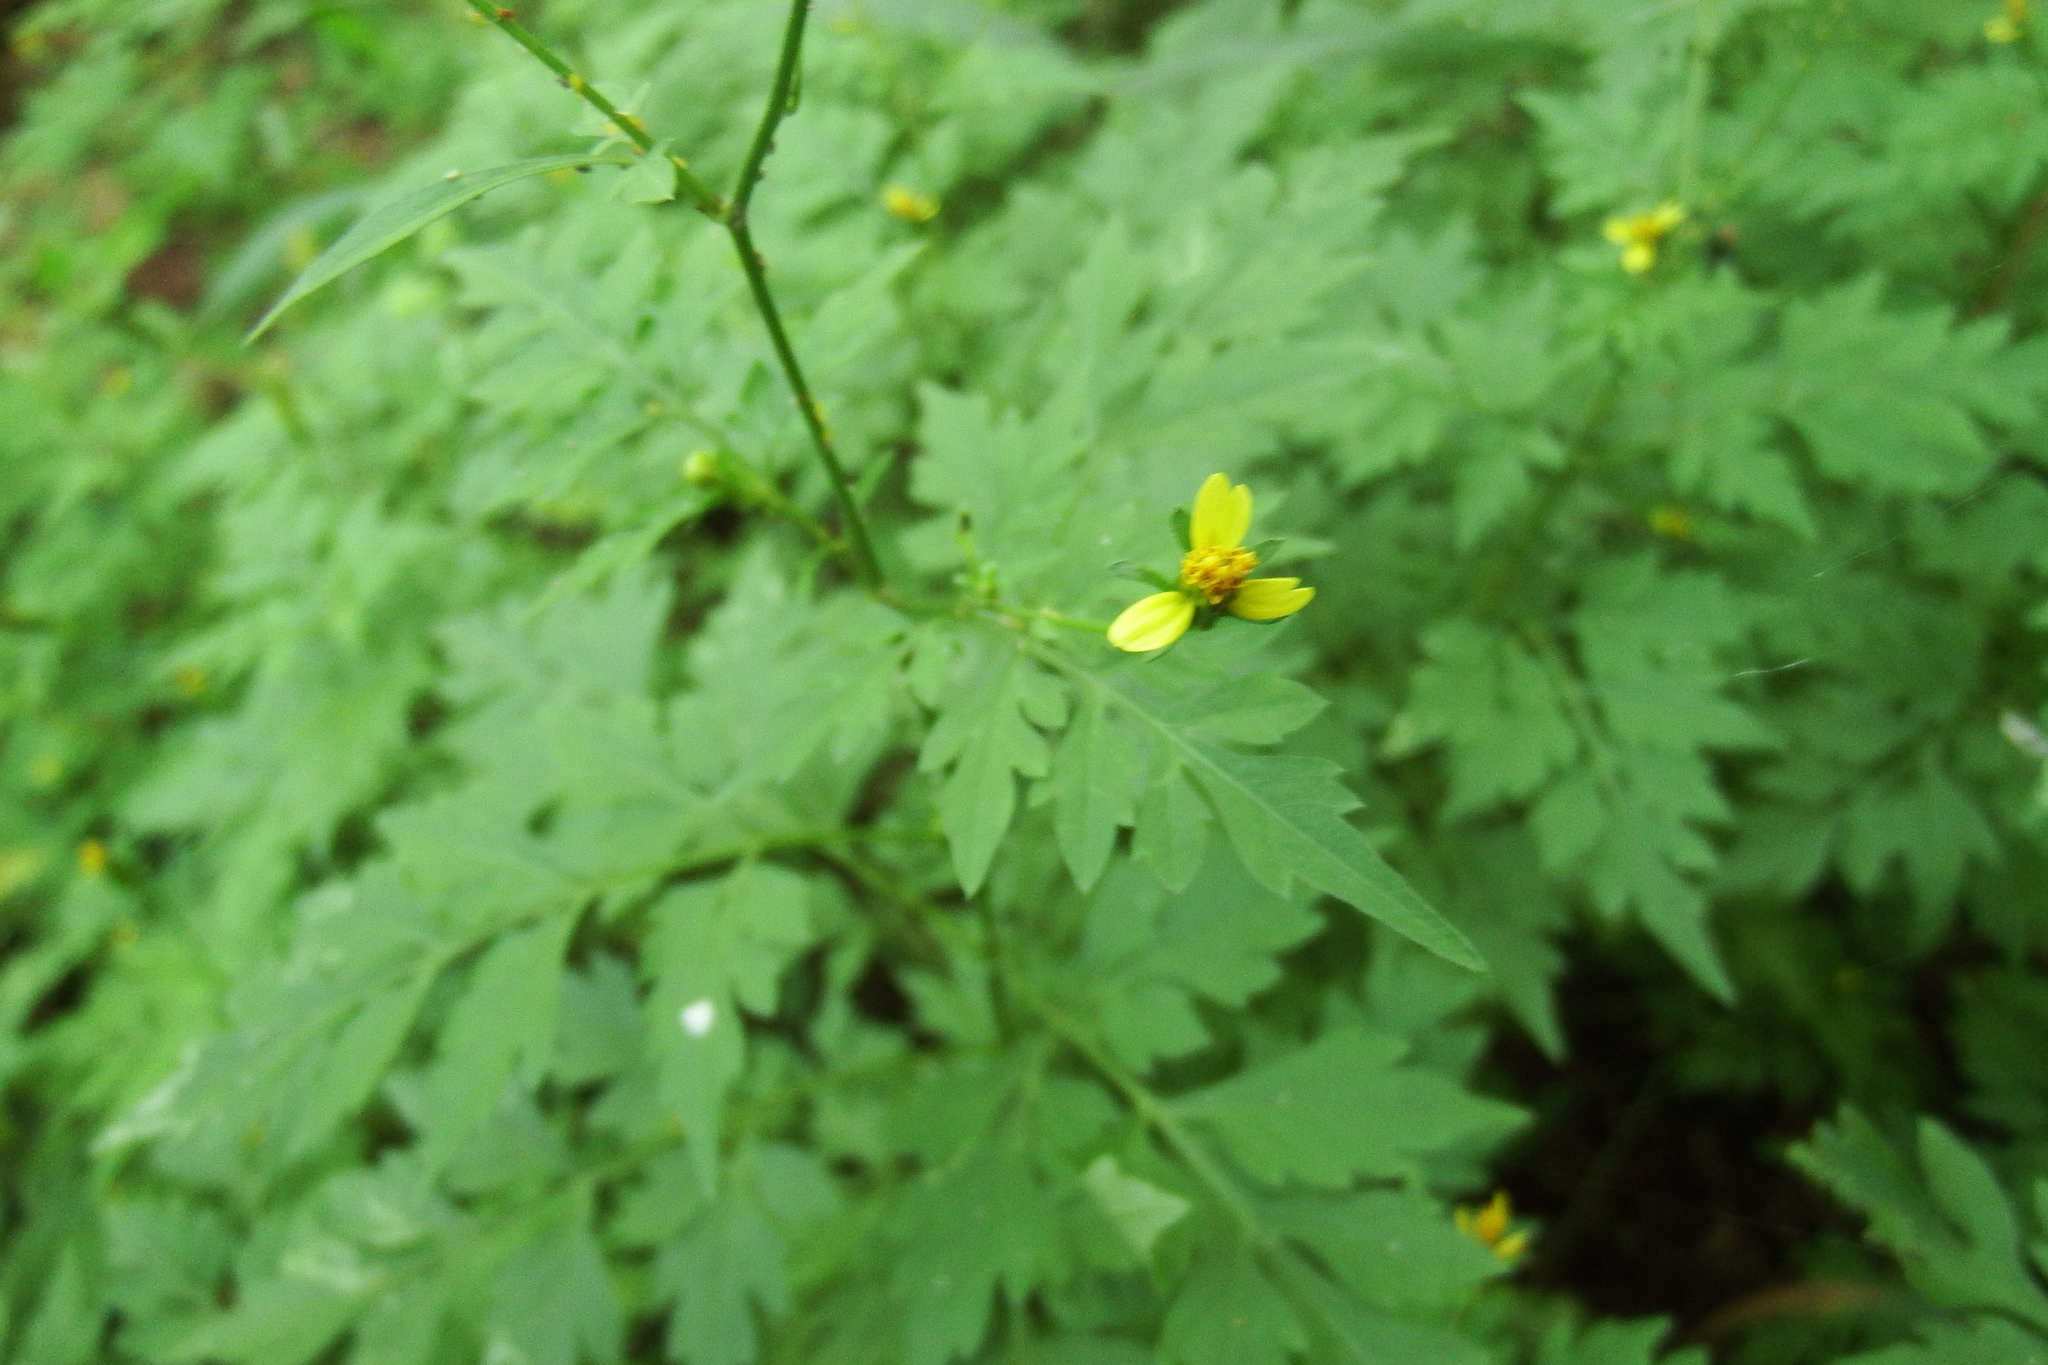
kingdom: Plantae
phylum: Tracheophyta
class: Magnoliopsida
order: Asterales
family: Asteraceae
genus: Bidens
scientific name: Bidens bipinnata
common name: Spanish-needles
